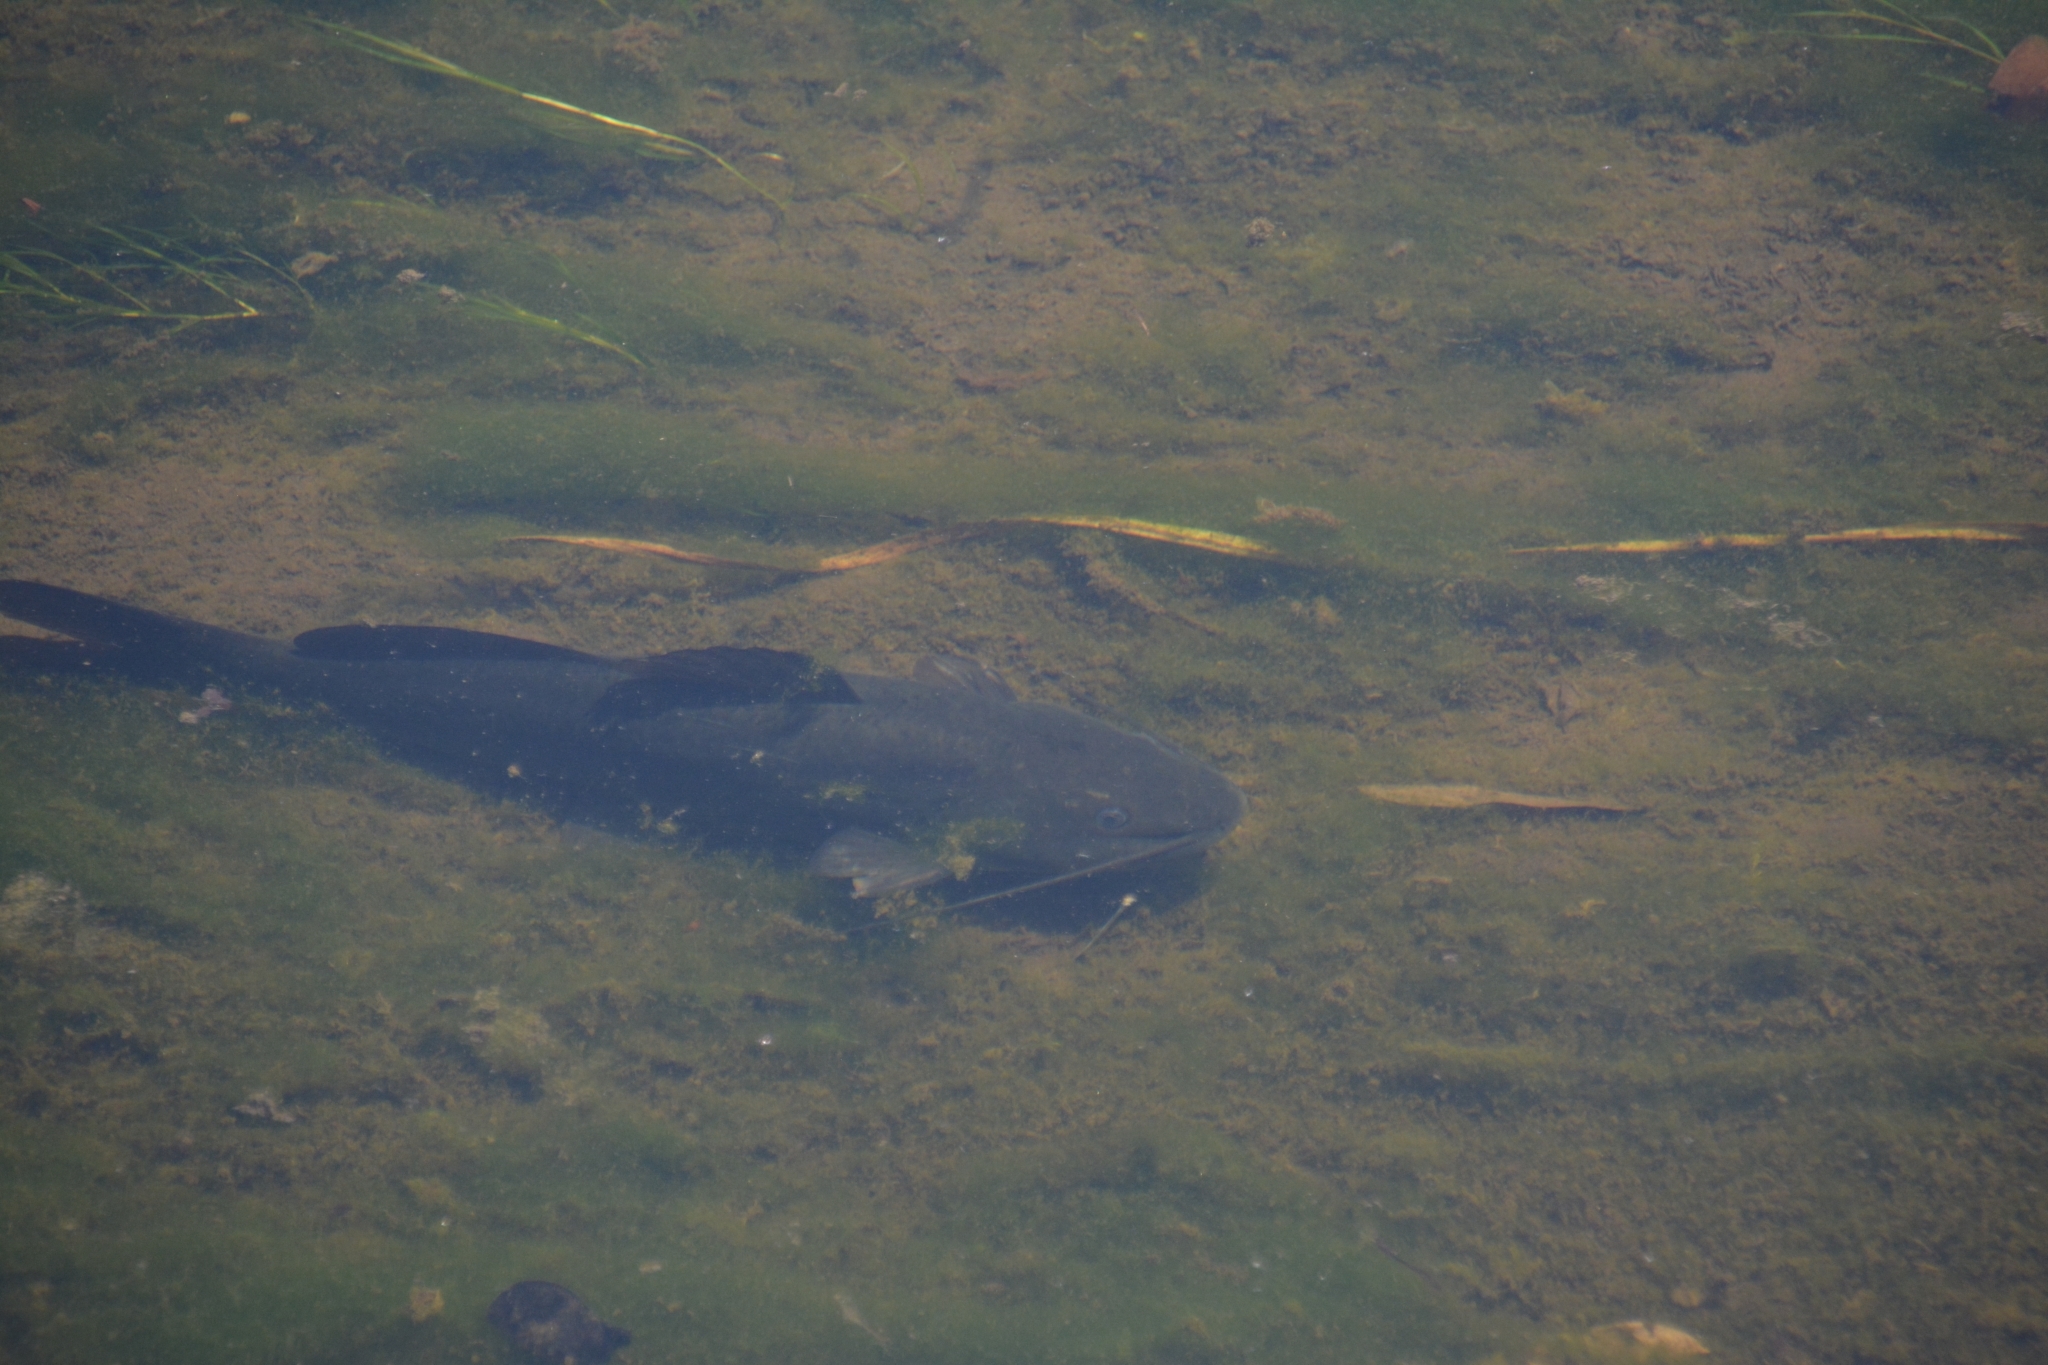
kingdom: Animalia
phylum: Chordata
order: Siluriformes
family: Heptapteridae
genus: Rhamdia
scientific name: Rhamdia quelen
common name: Catfish
